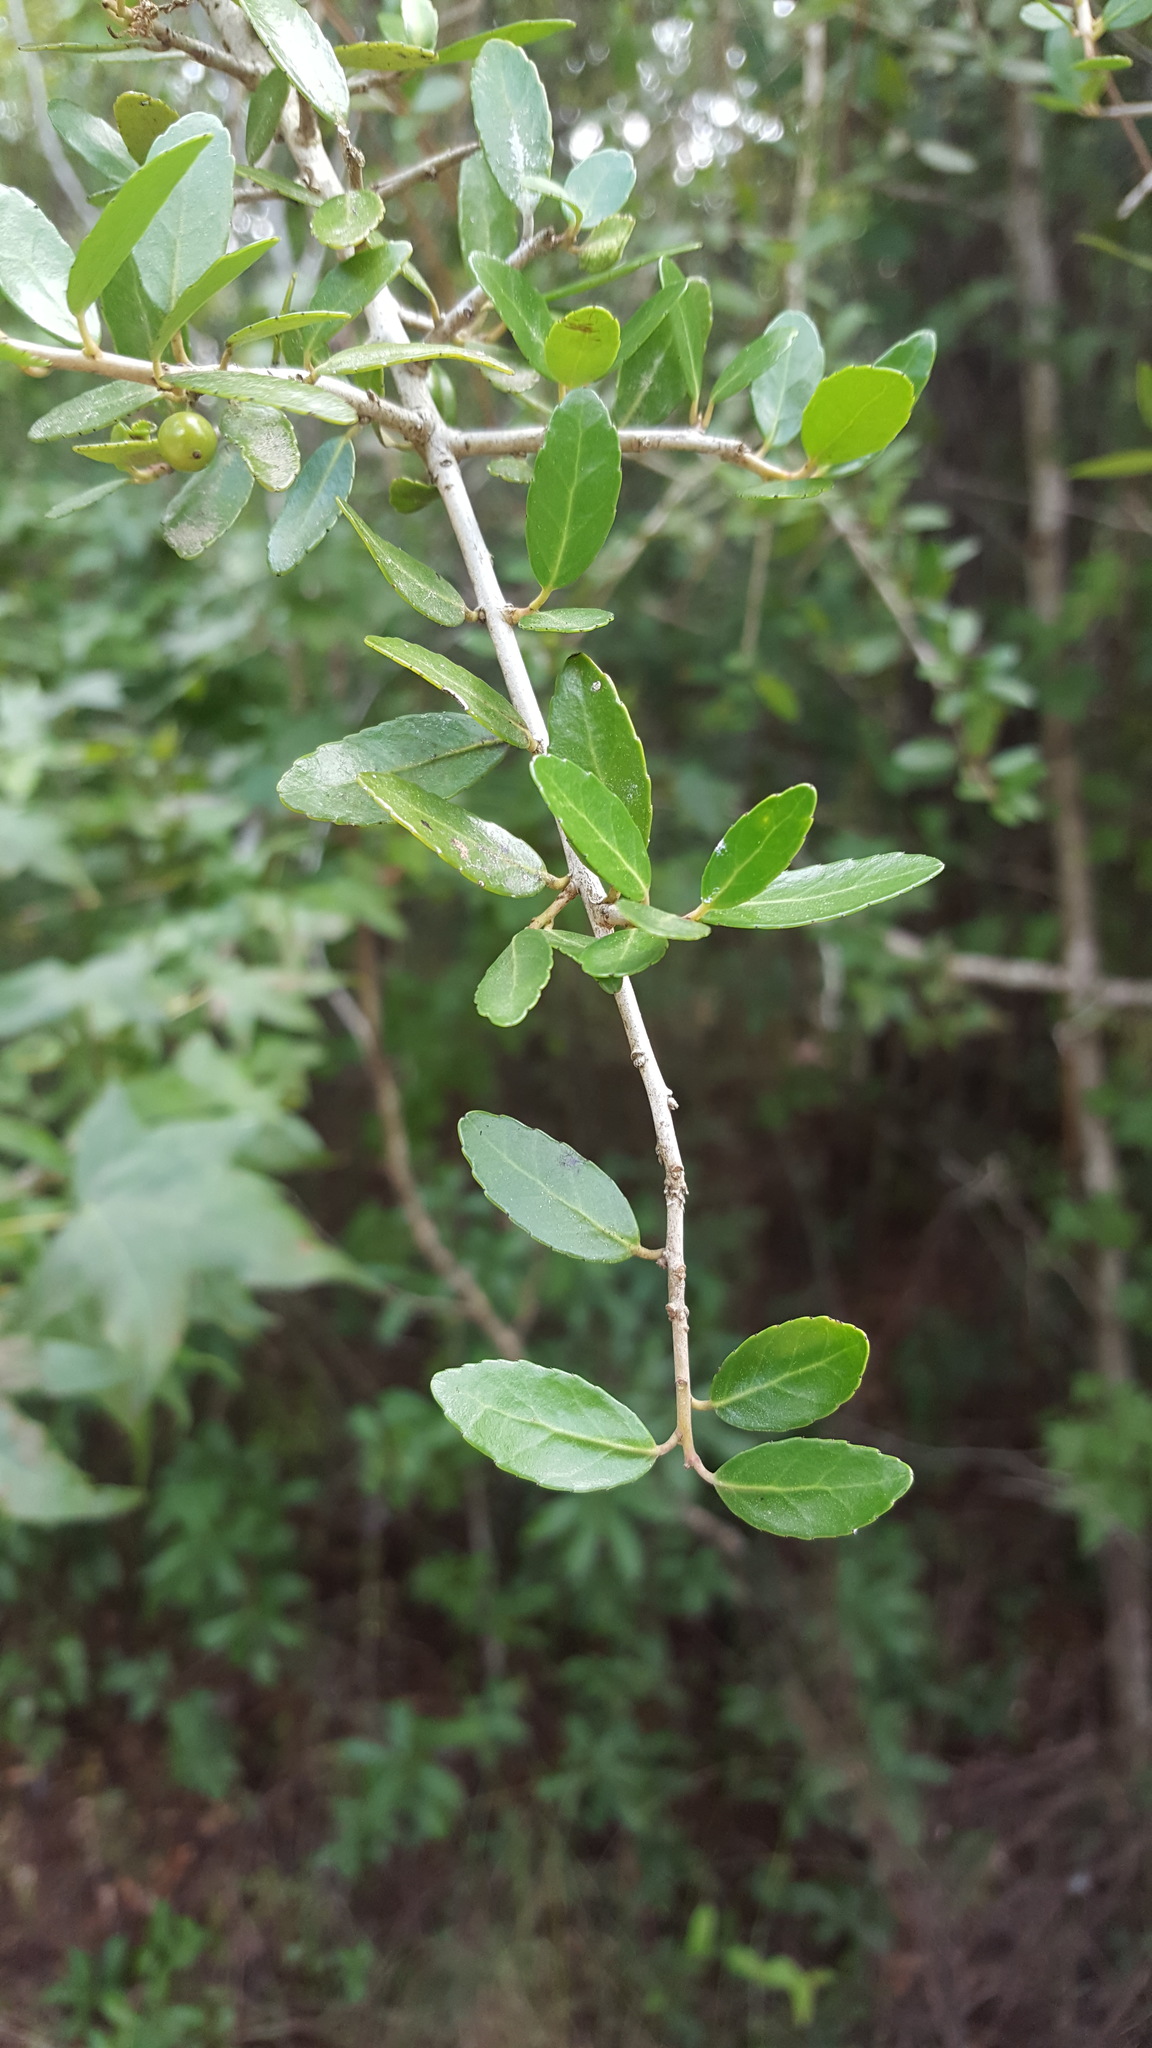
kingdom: Plantae
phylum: Tracheophyta
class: Magnoliopsida
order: Aquifoliales
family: Aquifoliaceae
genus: Ilex
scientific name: Ilex vomitoria
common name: Yaupon holly
